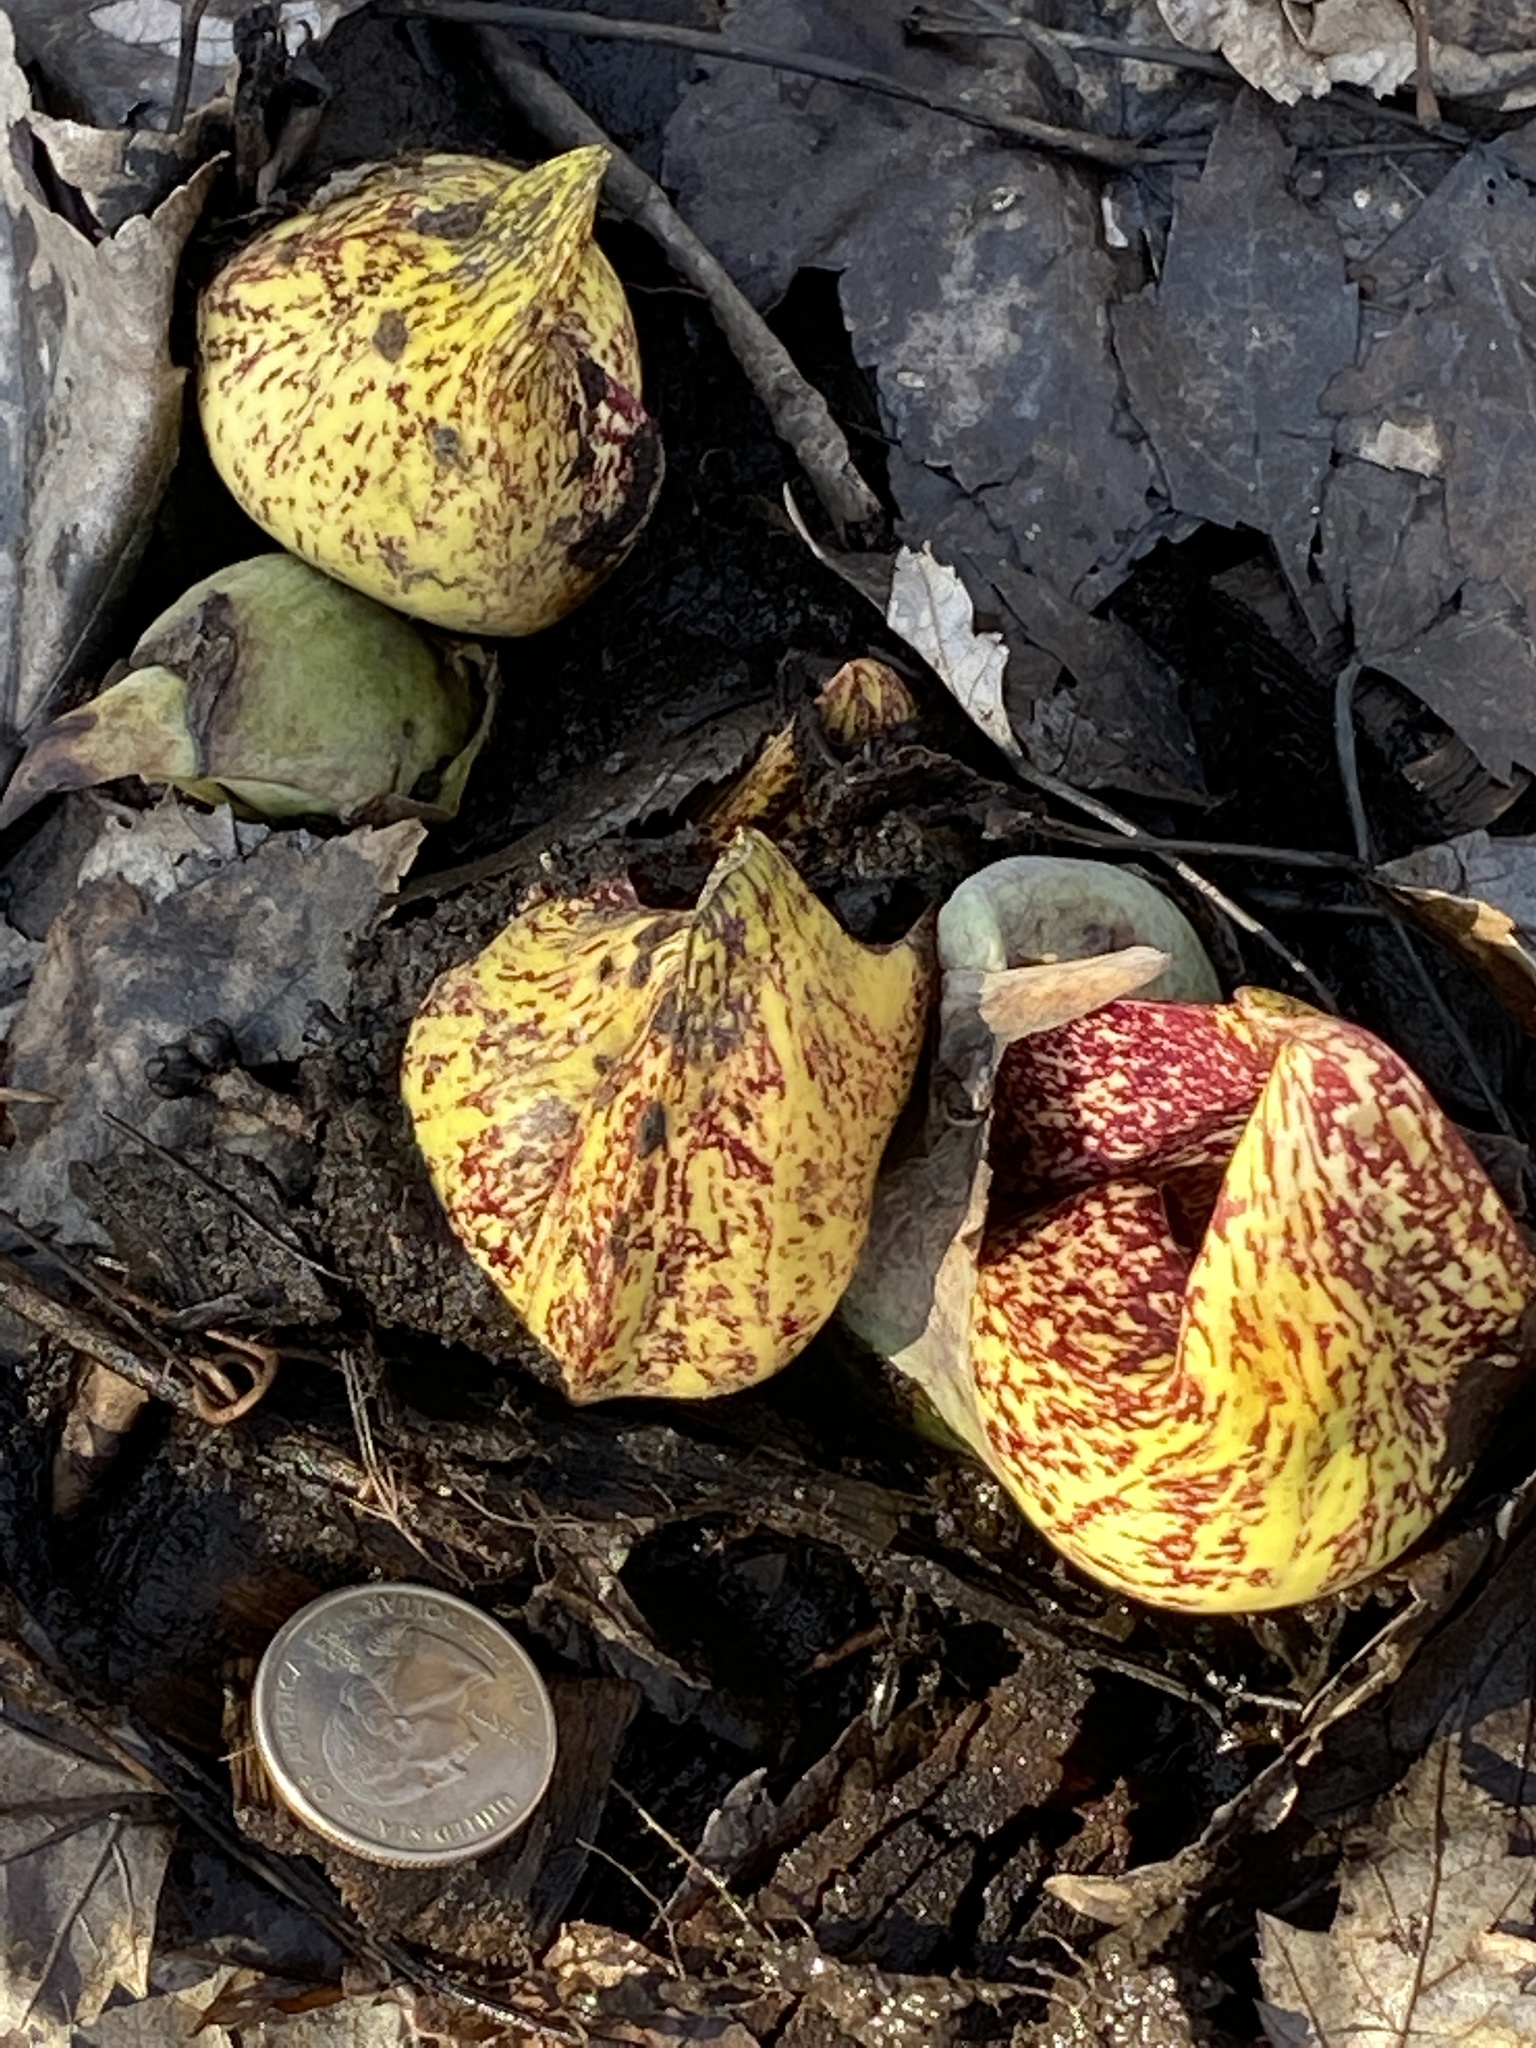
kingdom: Plantae
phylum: Tracheophyta
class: Liliopsida
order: Alismatales
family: Araceae
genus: Symplocarpus
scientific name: Symplocarpus foetidus
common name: Eastern skunk cabbage
